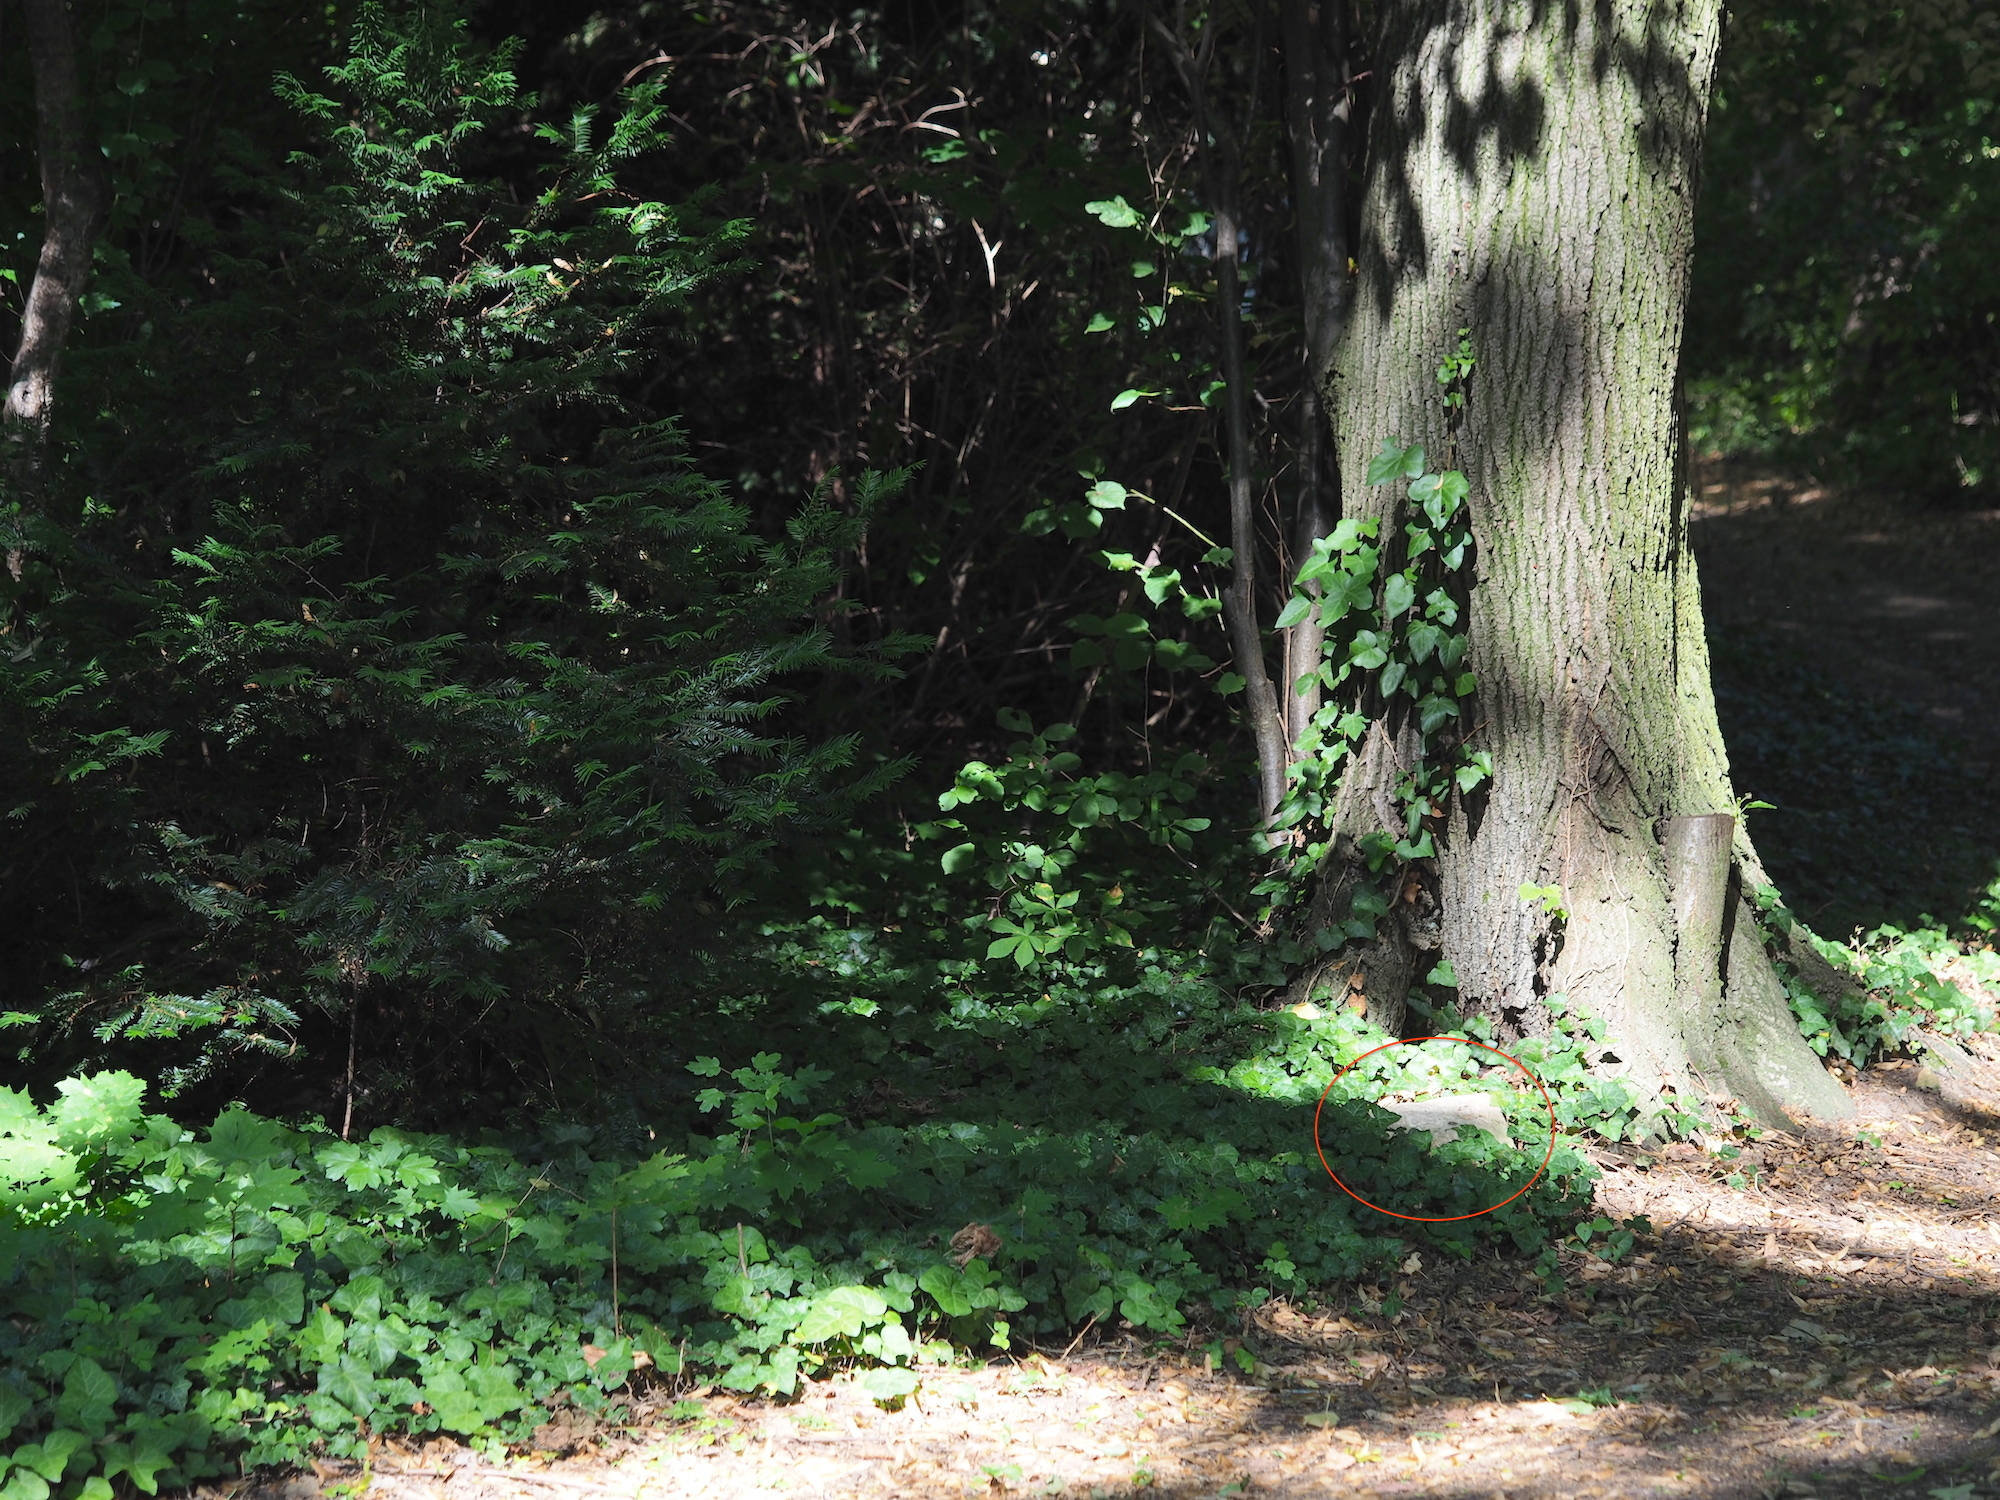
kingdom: Animalia
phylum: Arthropoda
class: Insecta
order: Orthoptera
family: Myrmecophilidae
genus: Myrmecophilus
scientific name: Myrmecophilus acervorum
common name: Ants-nest cricket
